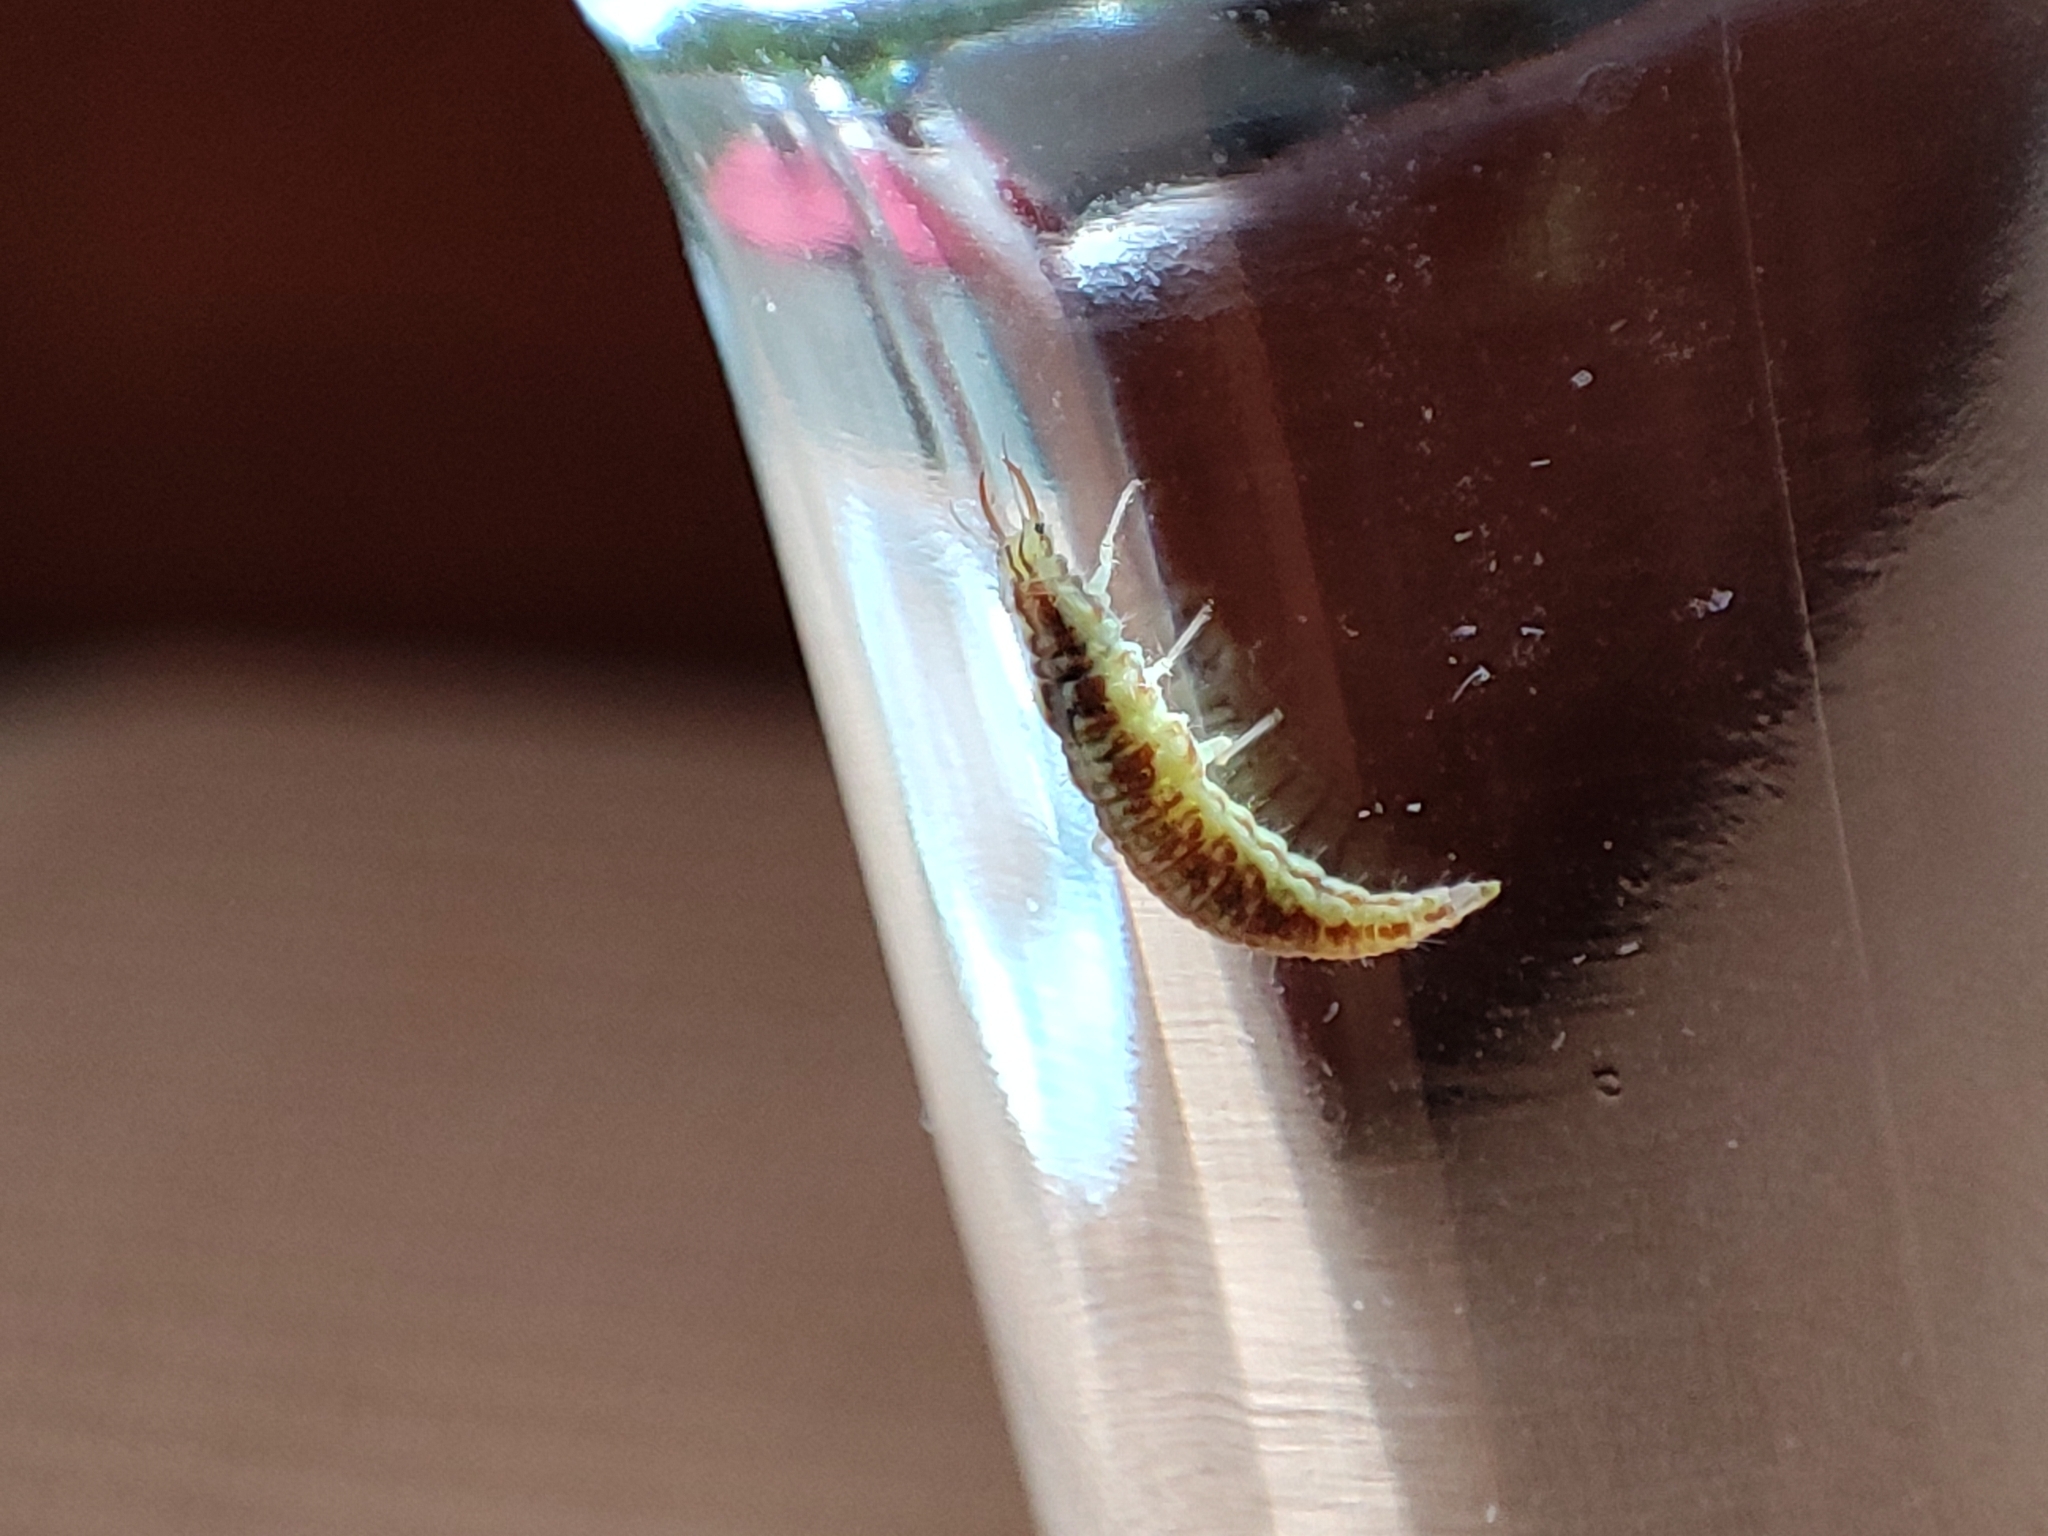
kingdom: Animalia
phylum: Arthropoda
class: Insecta
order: Neuroptera
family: Chrysopidae
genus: Chrysoperla
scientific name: Chrysoperla
